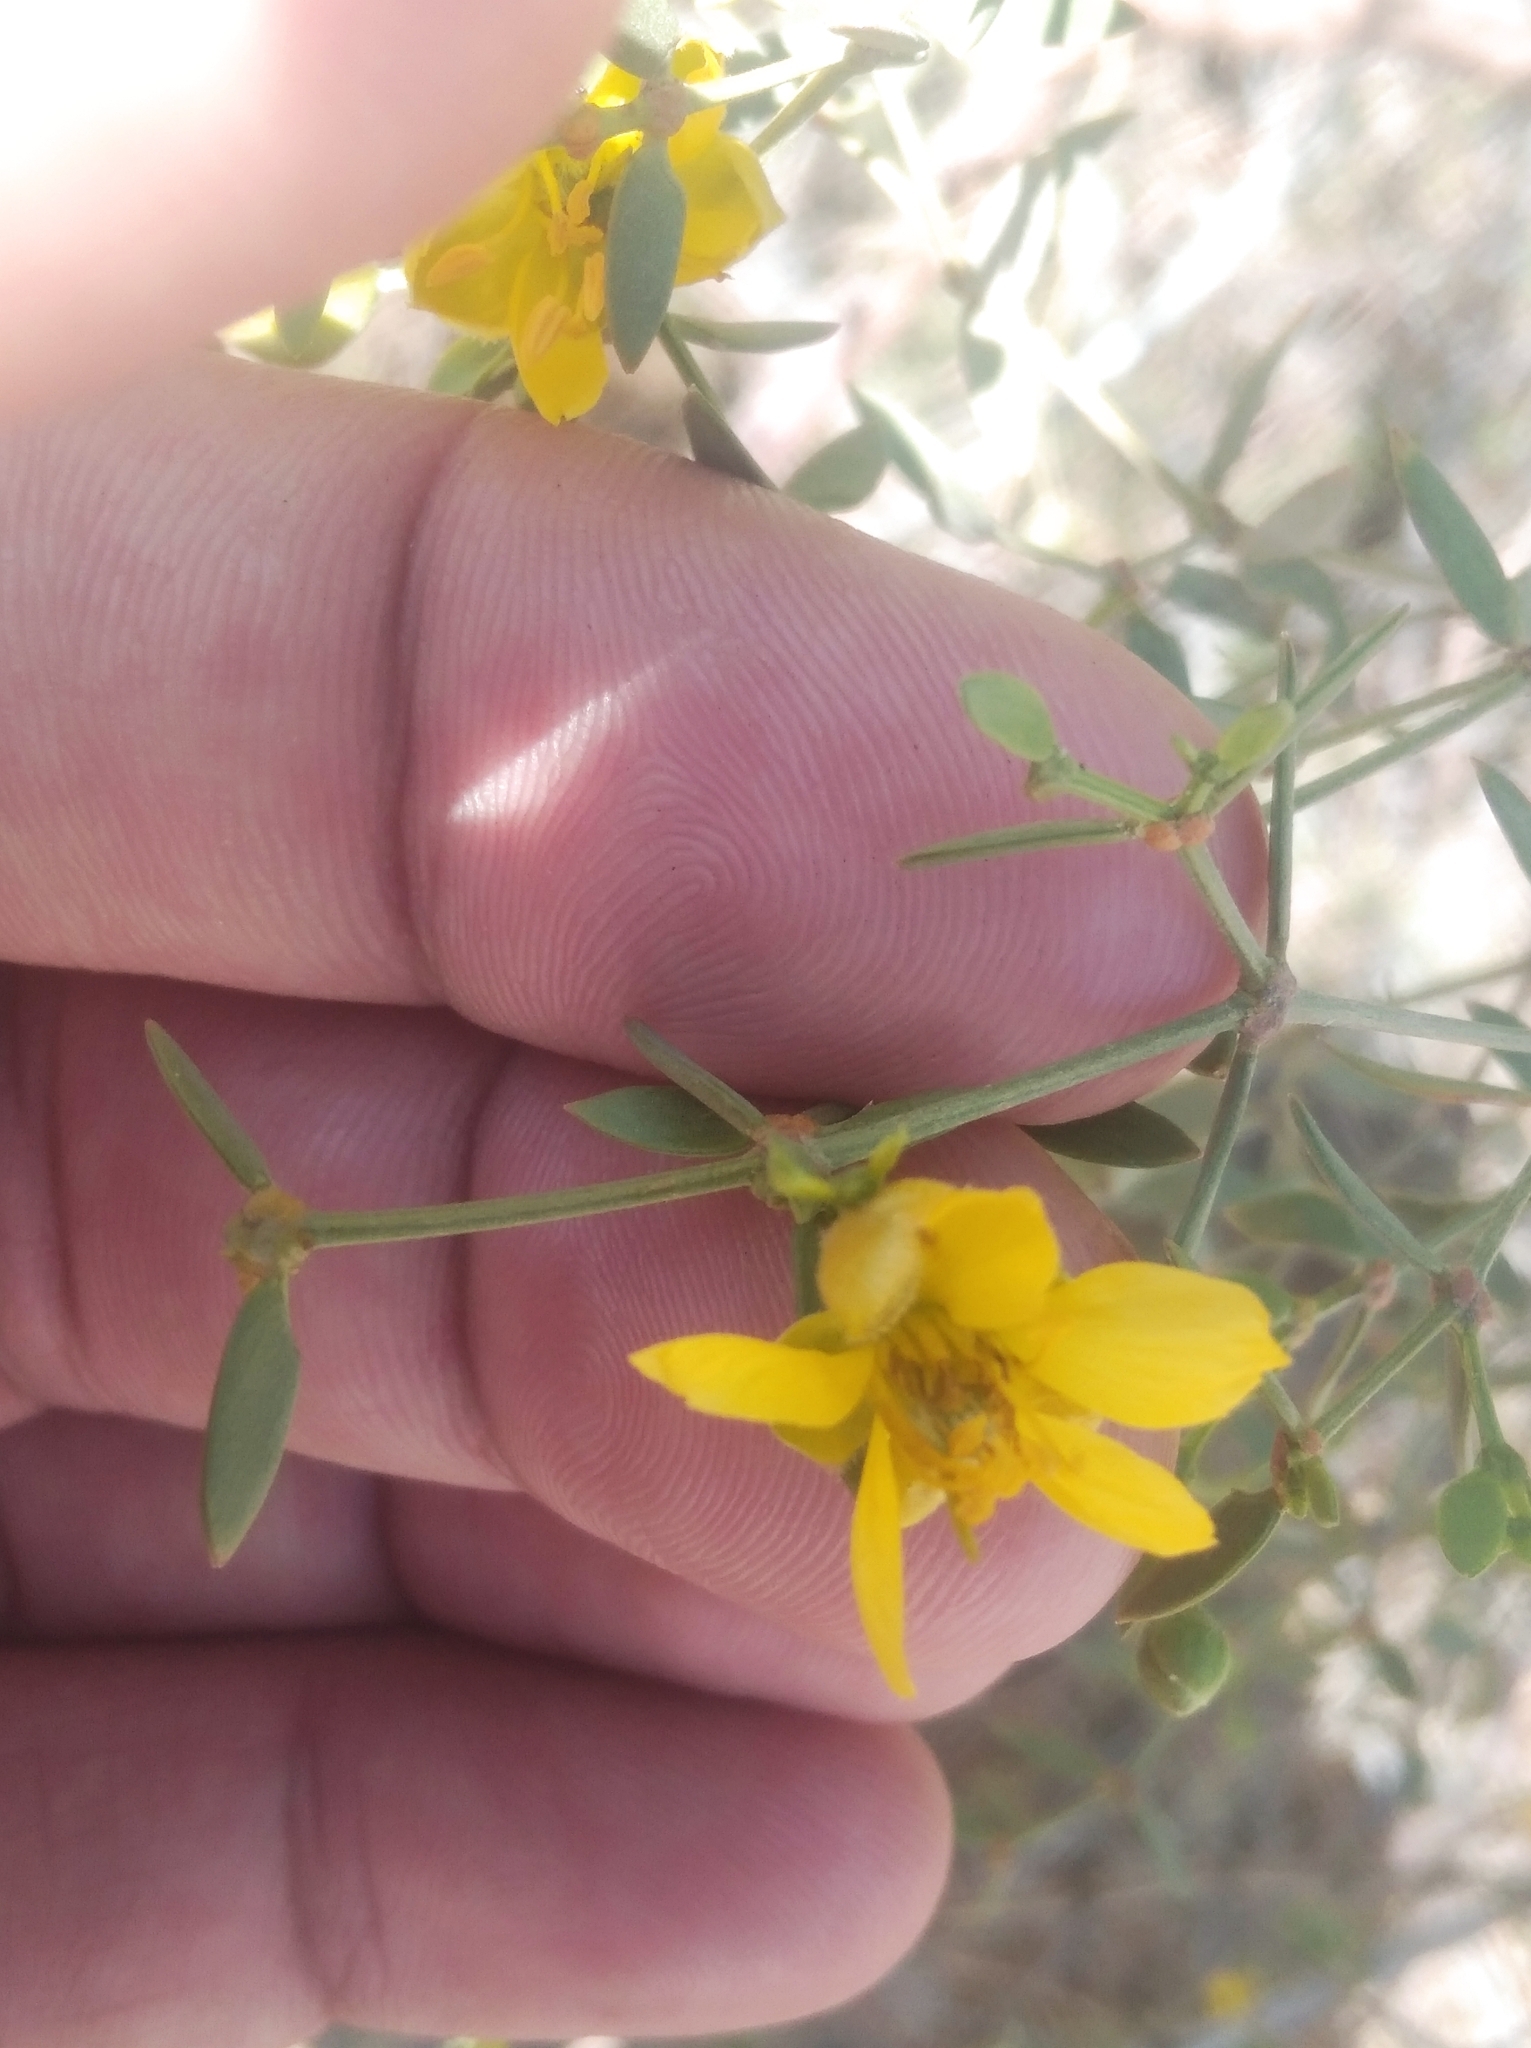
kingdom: Plantae
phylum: Tracheophyta
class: Magnoliopsida
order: Zygophyllales
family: Zygophyllaceae
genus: Larrea
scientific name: Larrea divaricata
